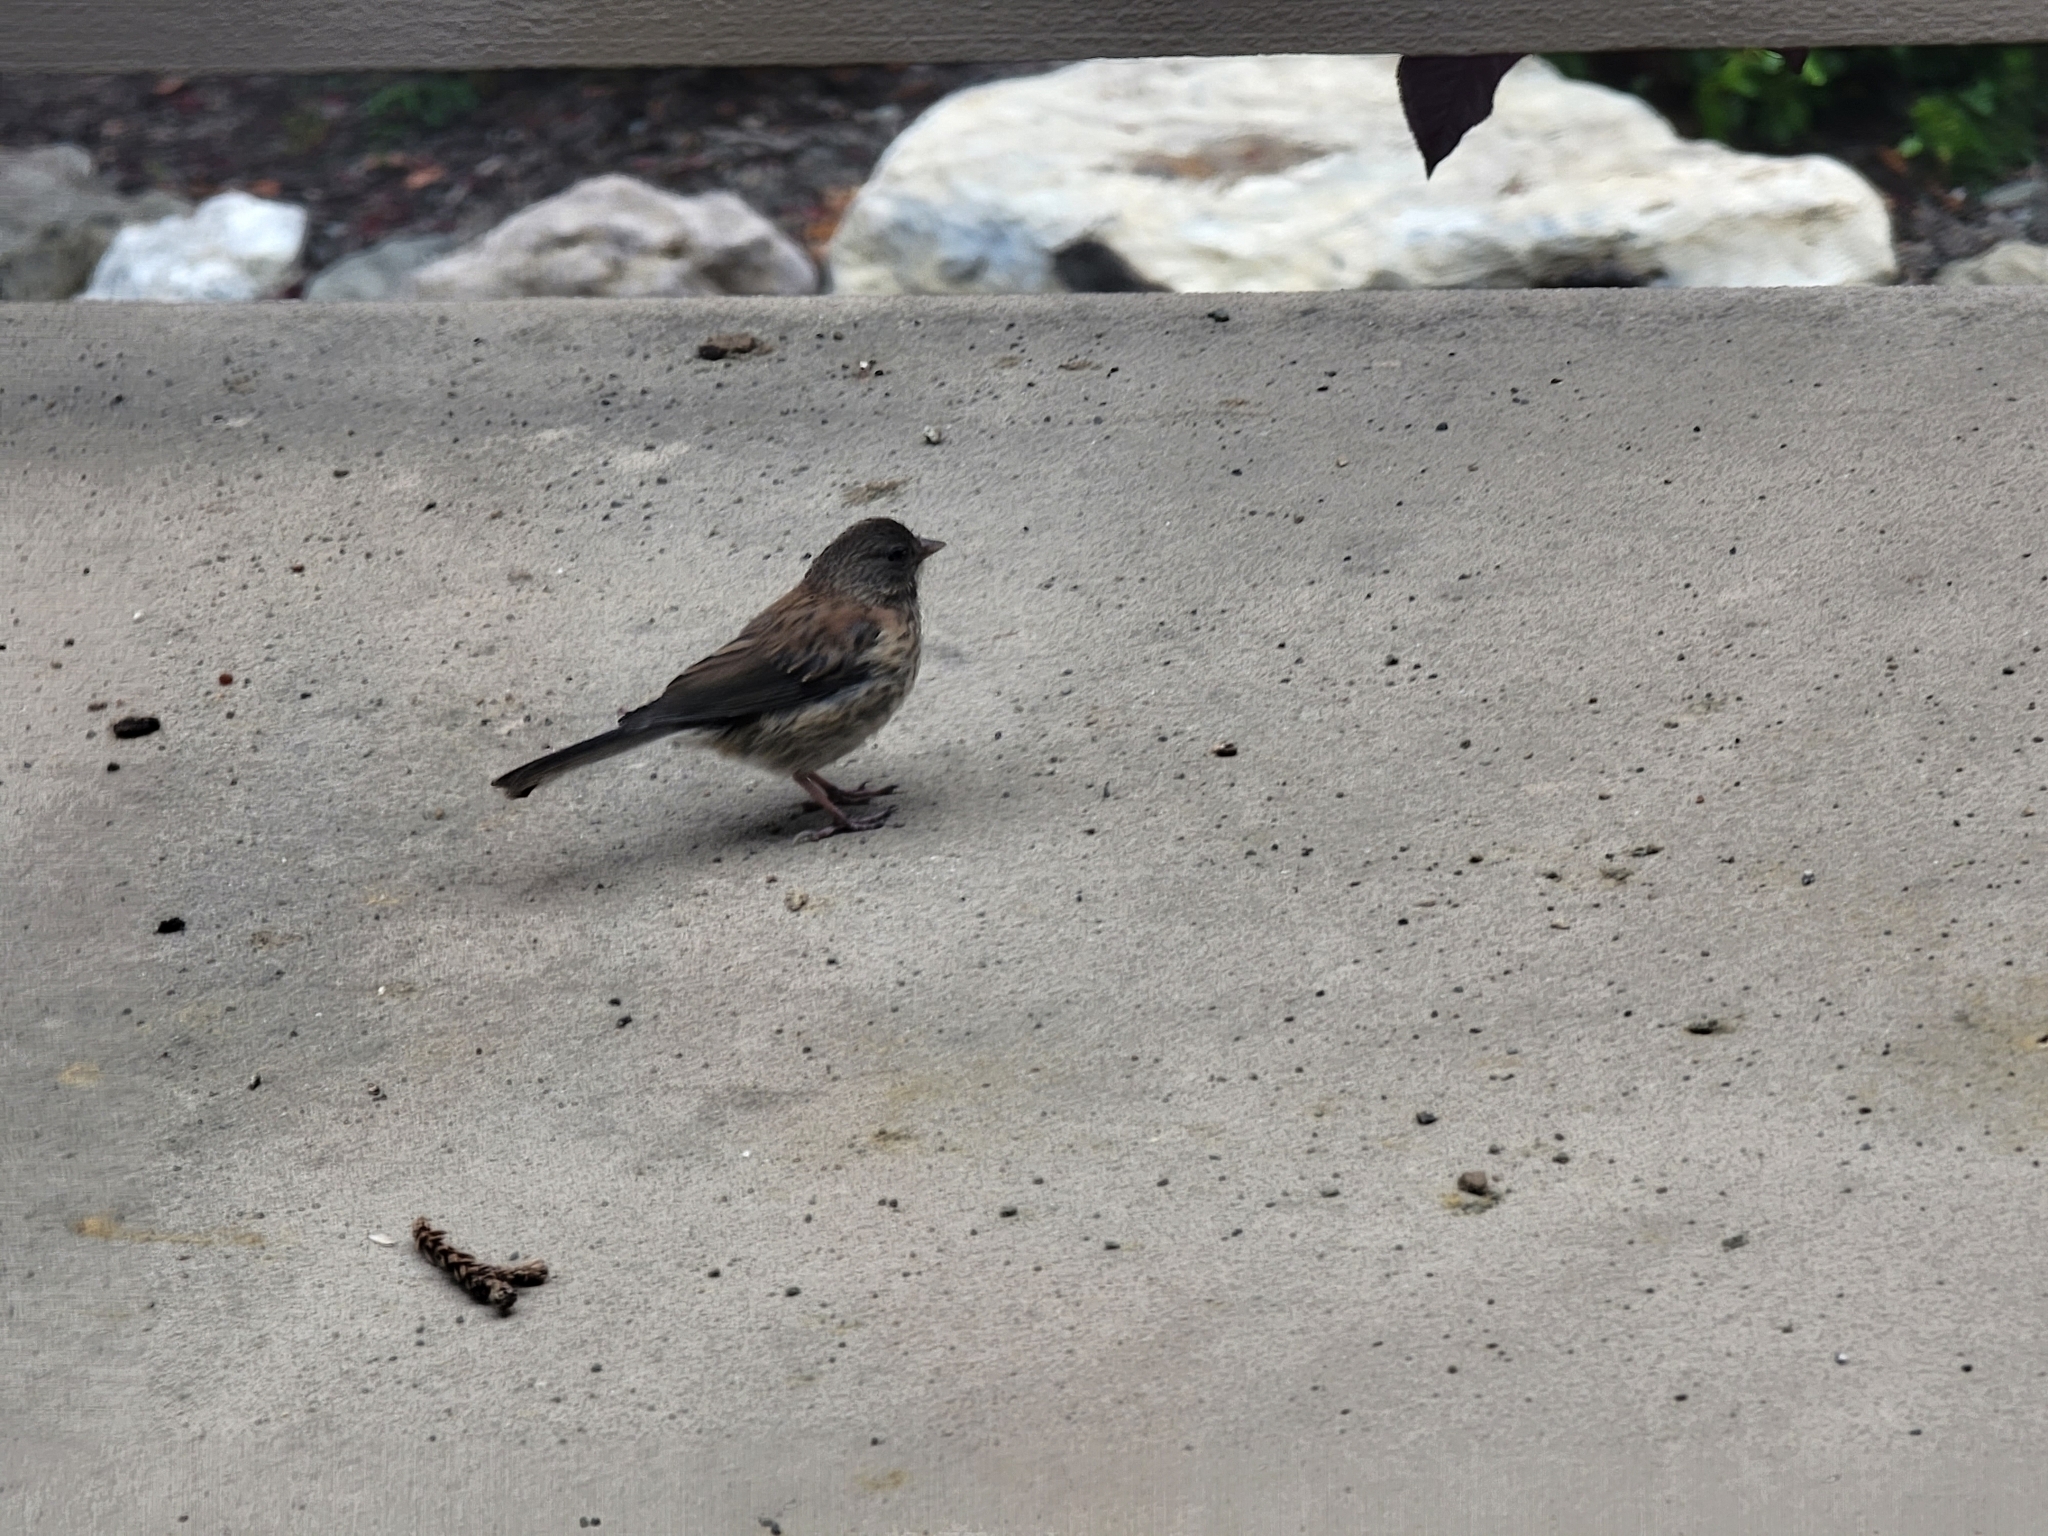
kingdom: Animalia
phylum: Chordata
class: Aves
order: Passeriformes
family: Passerellidae
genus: Junco
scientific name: Junco hyemalis
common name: Dark-eyed junco
